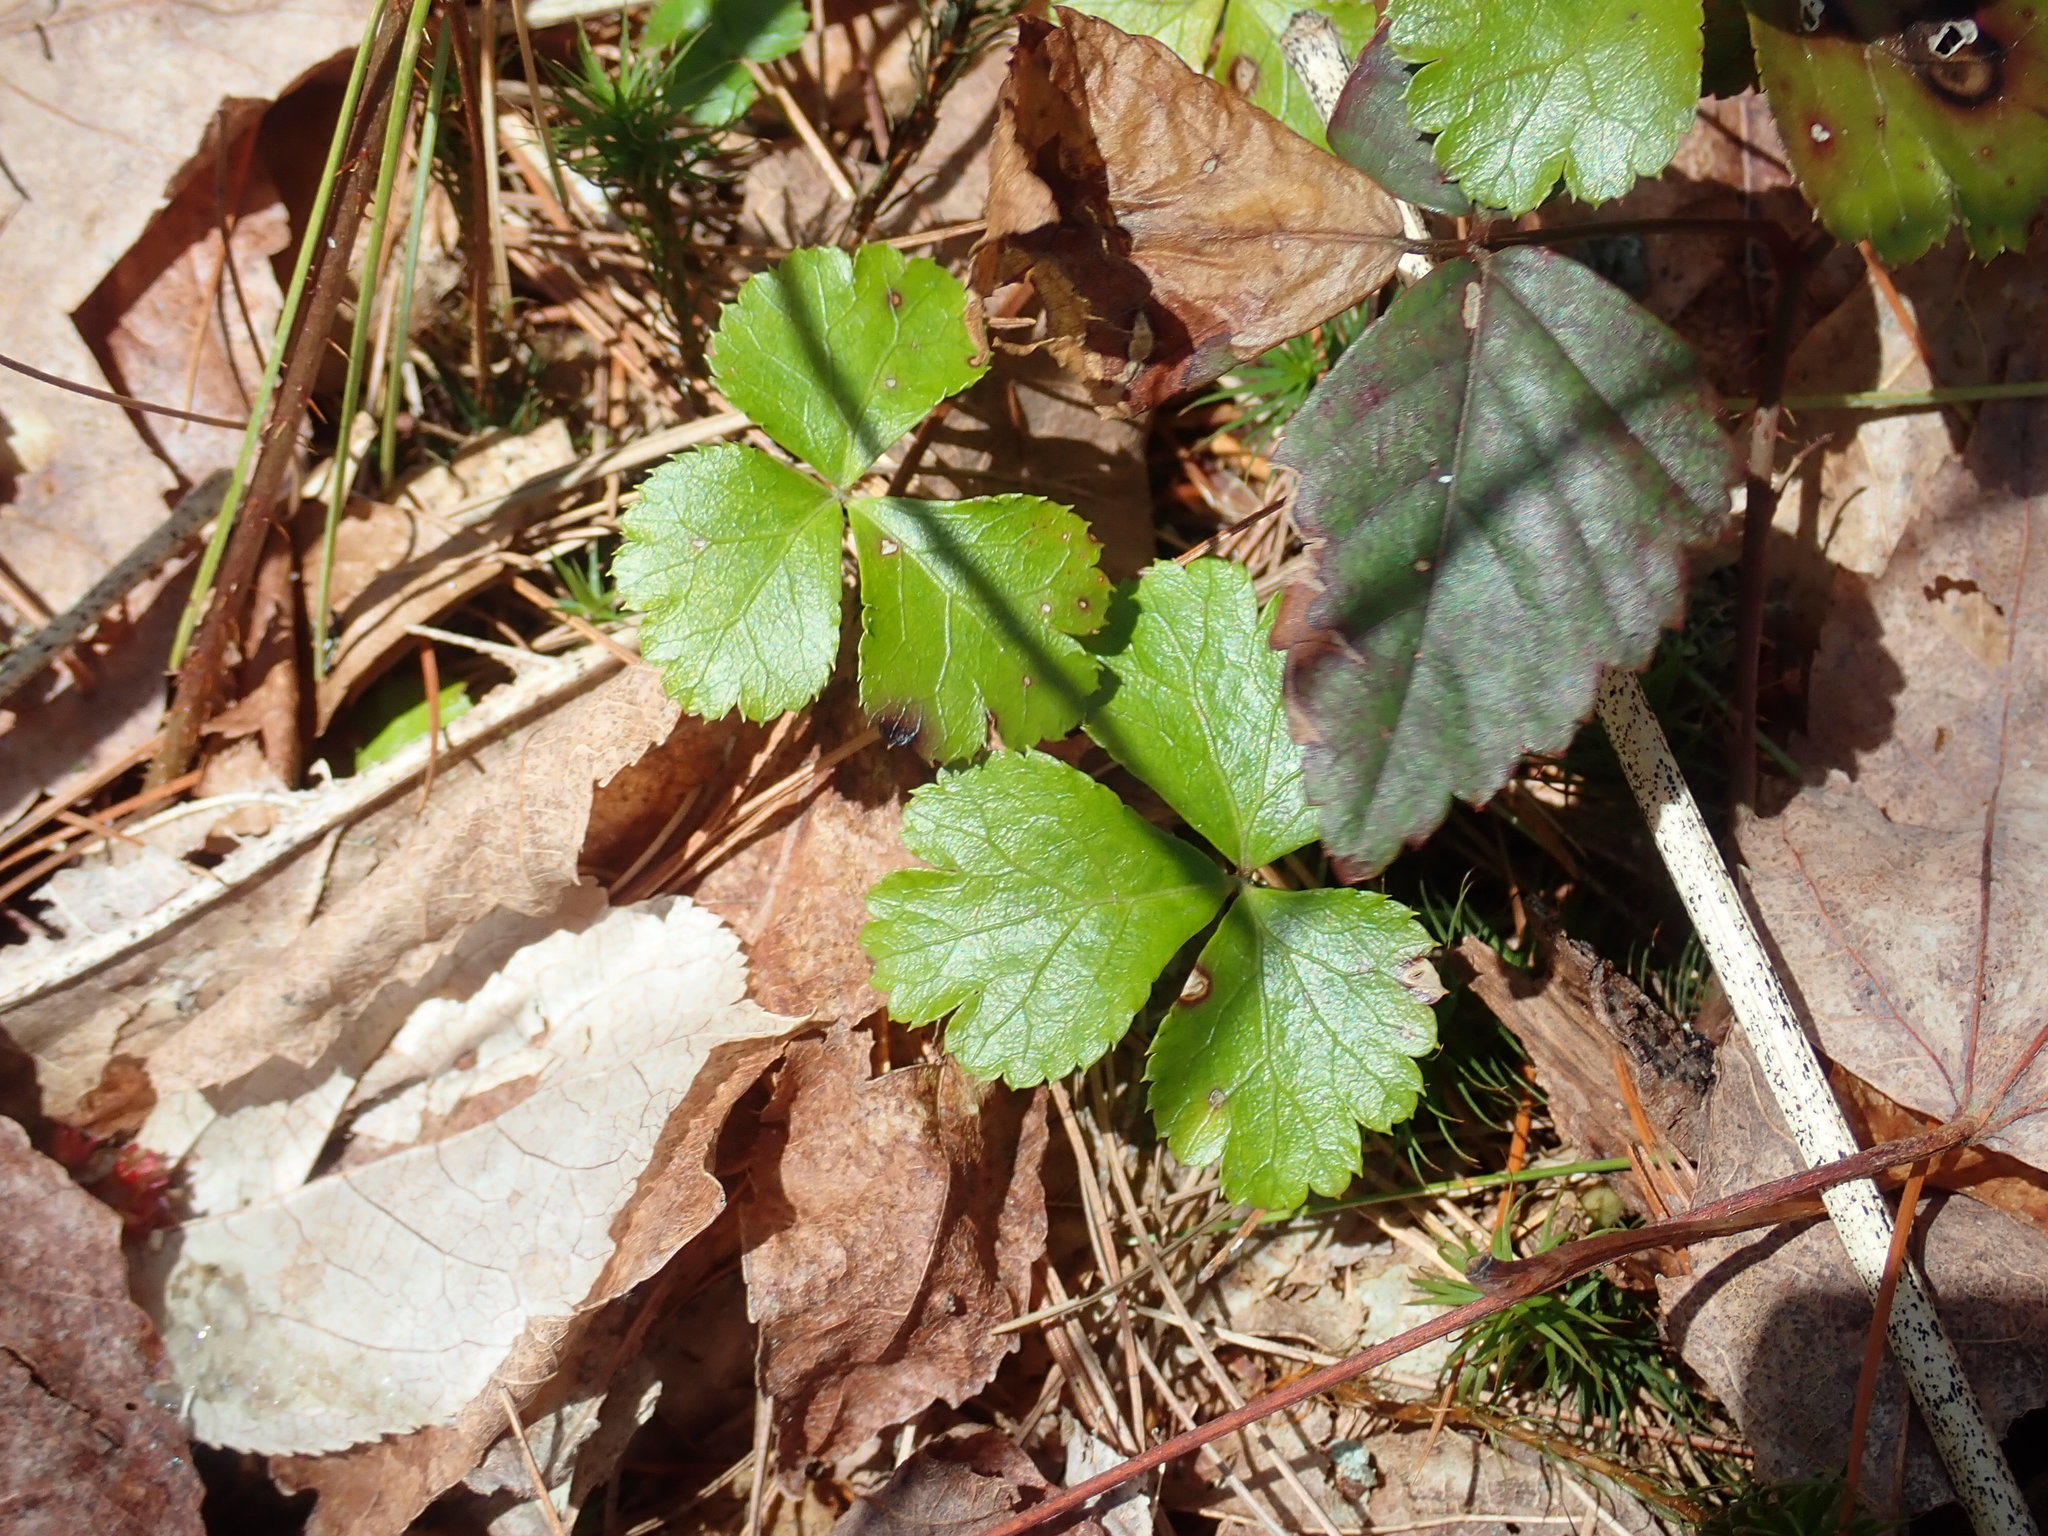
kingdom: Plantae
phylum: Tracheophyta
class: Magnoliopsida
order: Ranunculales
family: Ranunculaceae
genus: Coptis
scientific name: Coptis trifolia
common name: Canker-root
